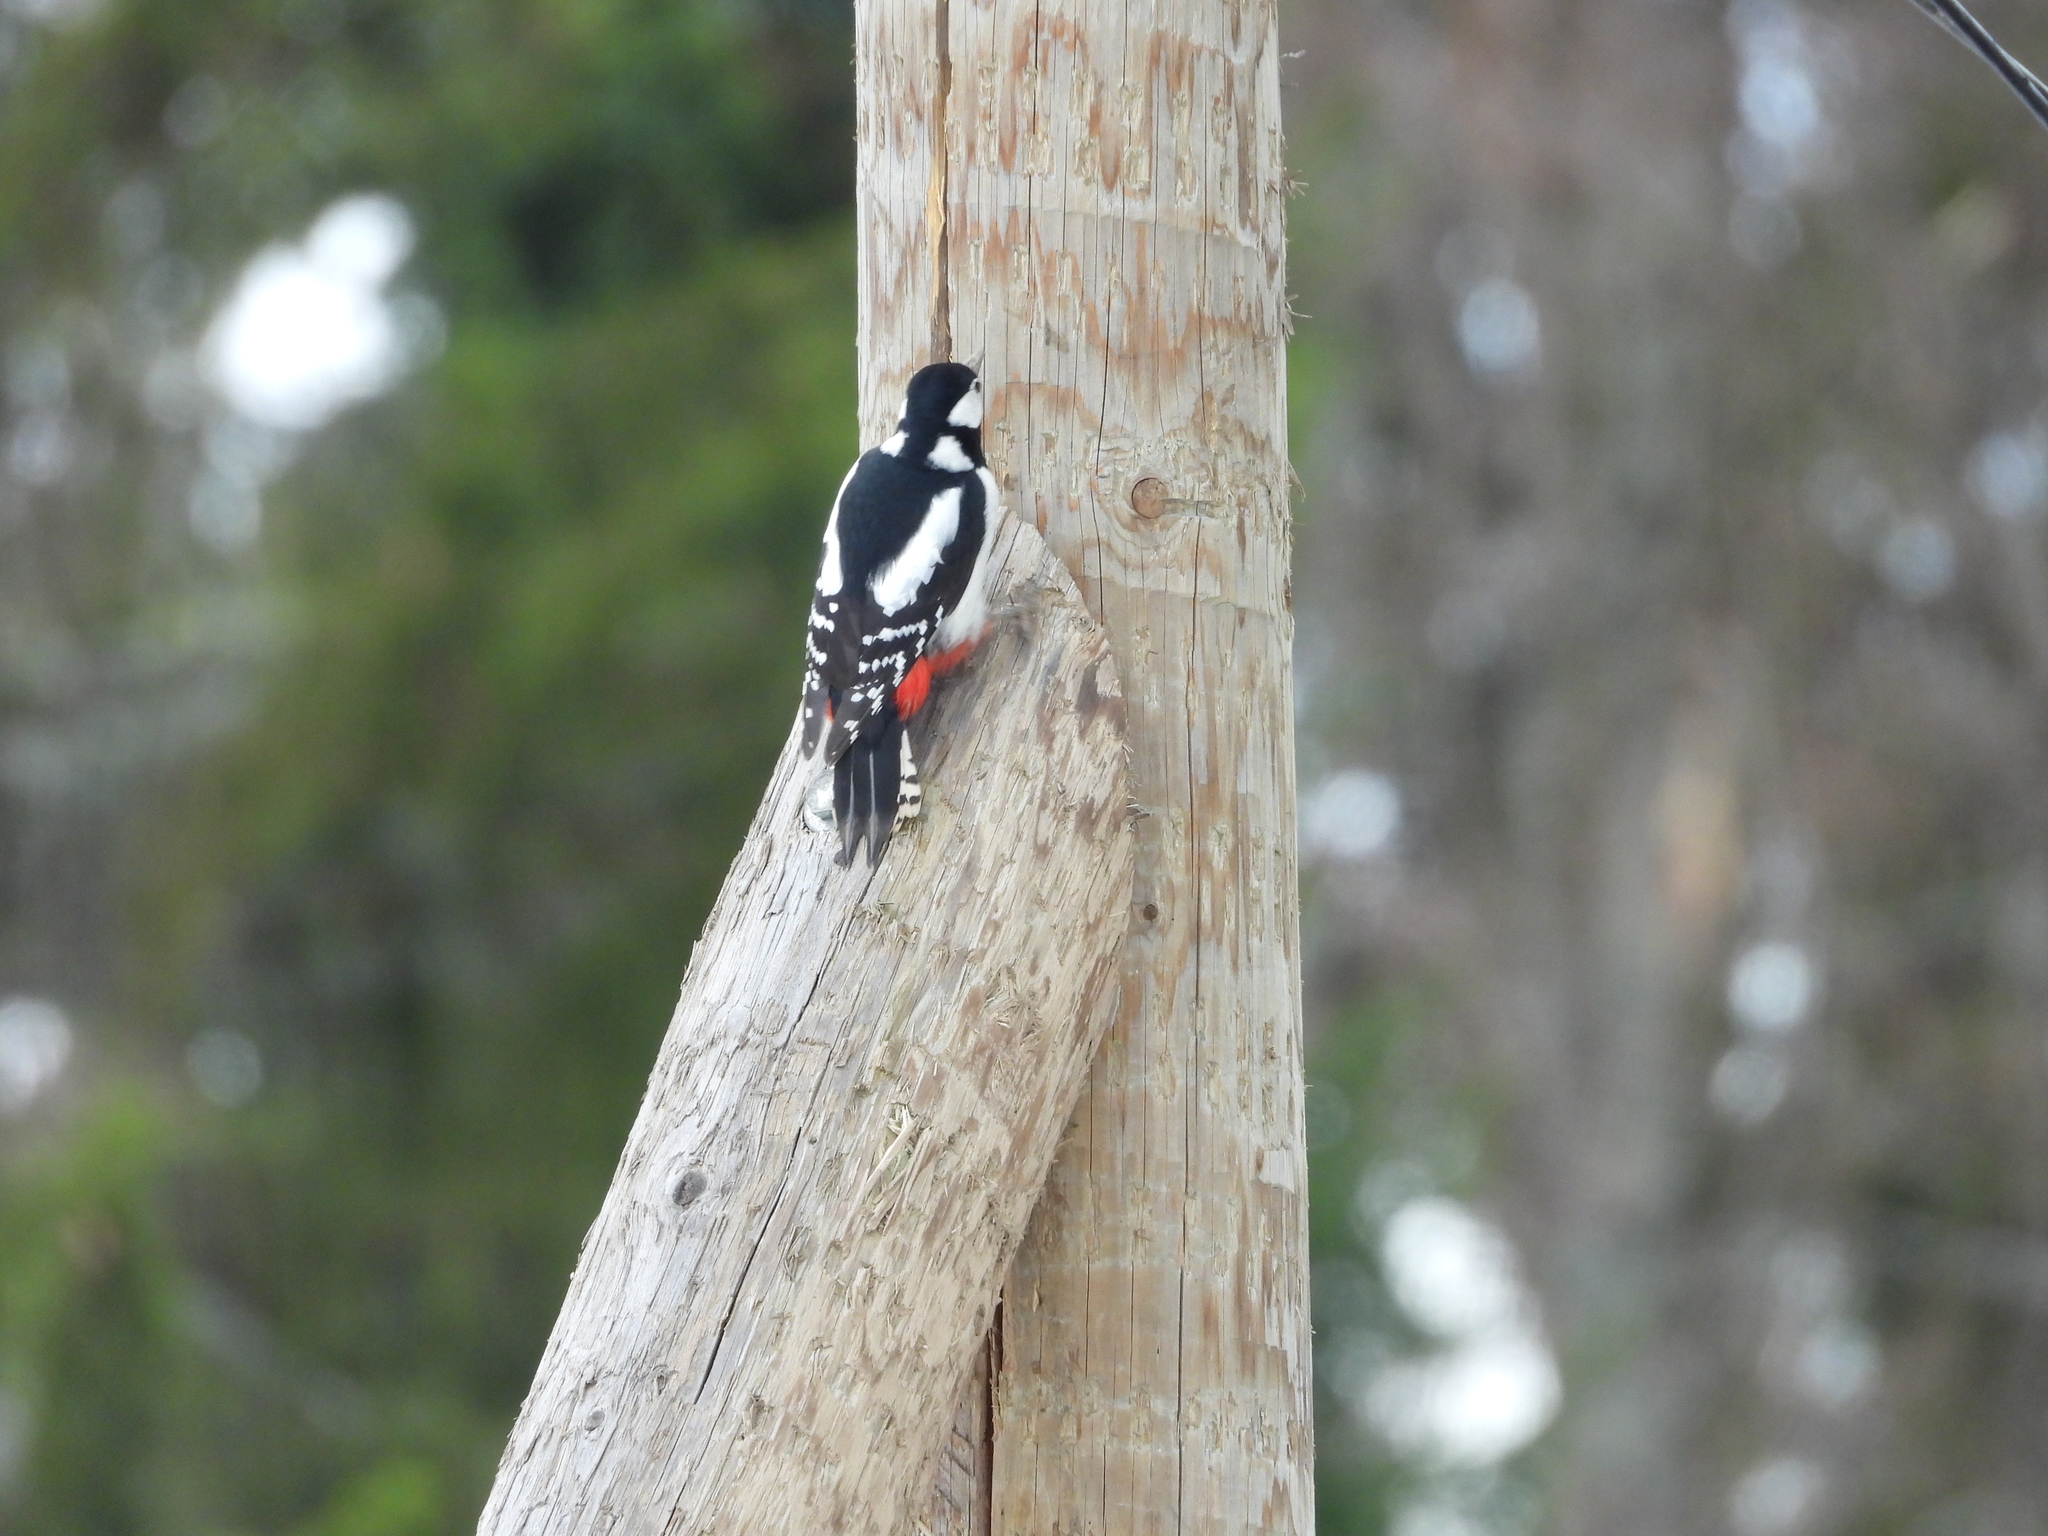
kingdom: Animalia
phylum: Chordata
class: Aves
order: Piciformes
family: Picidae
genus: Dendrocopos
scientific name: Dendrocopos major
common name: Great spotted woodpecker
